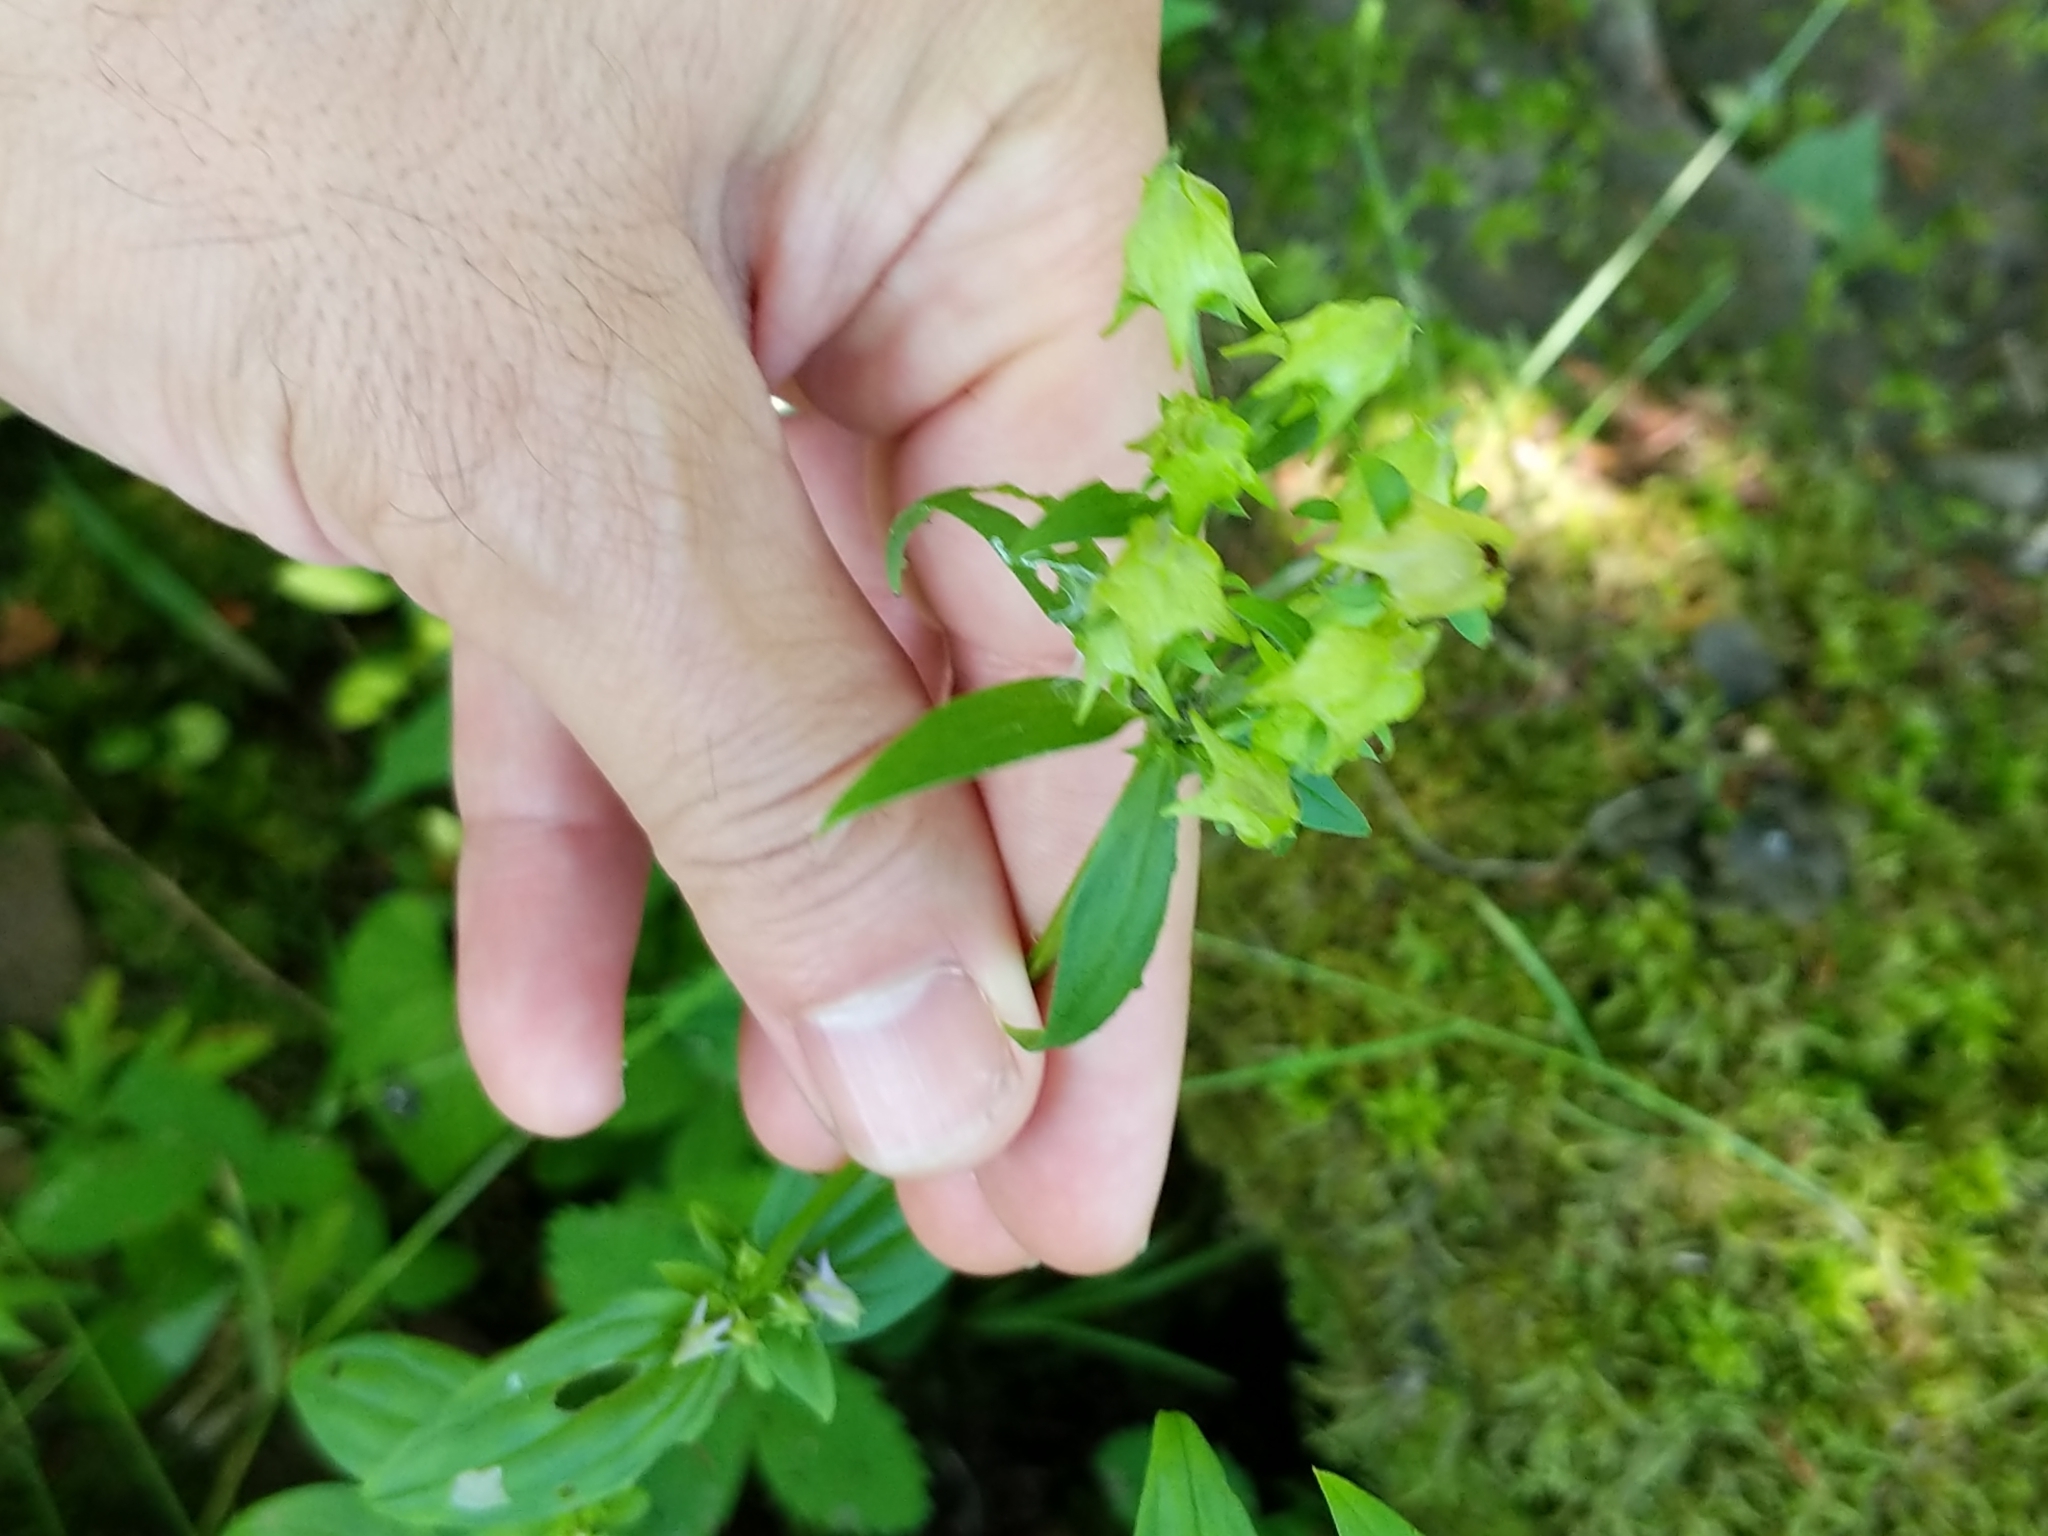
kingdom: Plantae
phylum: Tracheophyta
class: Magnoliopsida
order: Gentianales
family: Gentianaceae
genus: Halenia
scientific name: Halenia deflexa
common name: American spurred gentian
